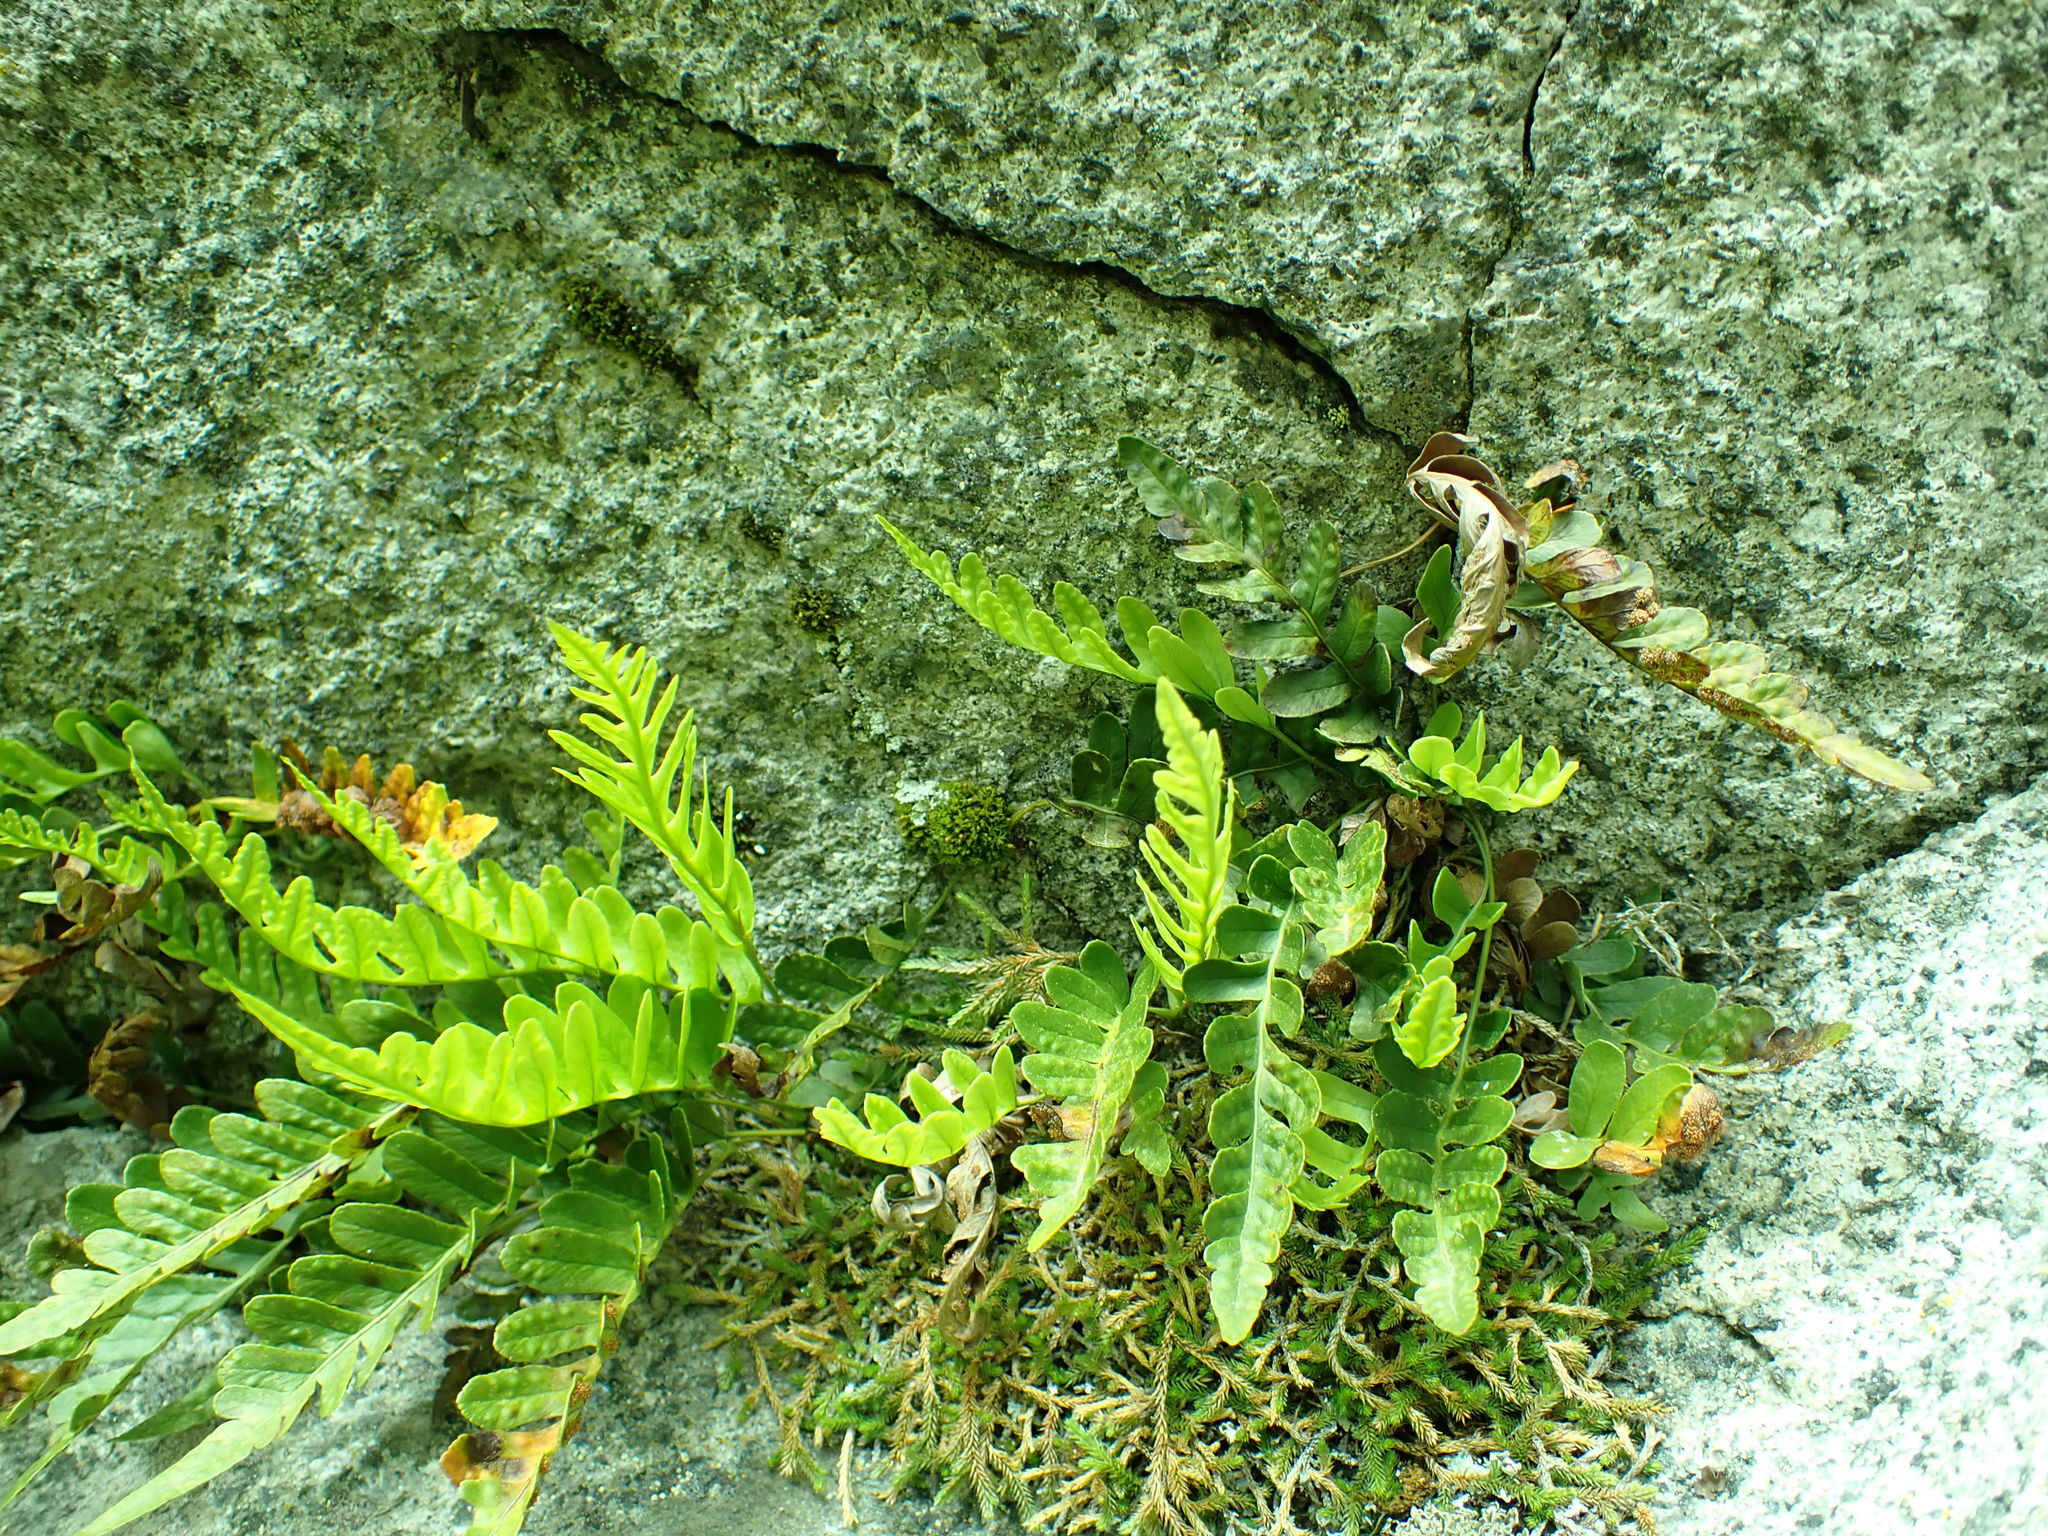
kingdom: Plantae
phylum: Tracheophyta
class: Polypodiopsida
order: Polypodiales
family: Polypodiaceae
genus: Polypodium
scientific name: Polypodium amorphum
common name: Pacific polypody
